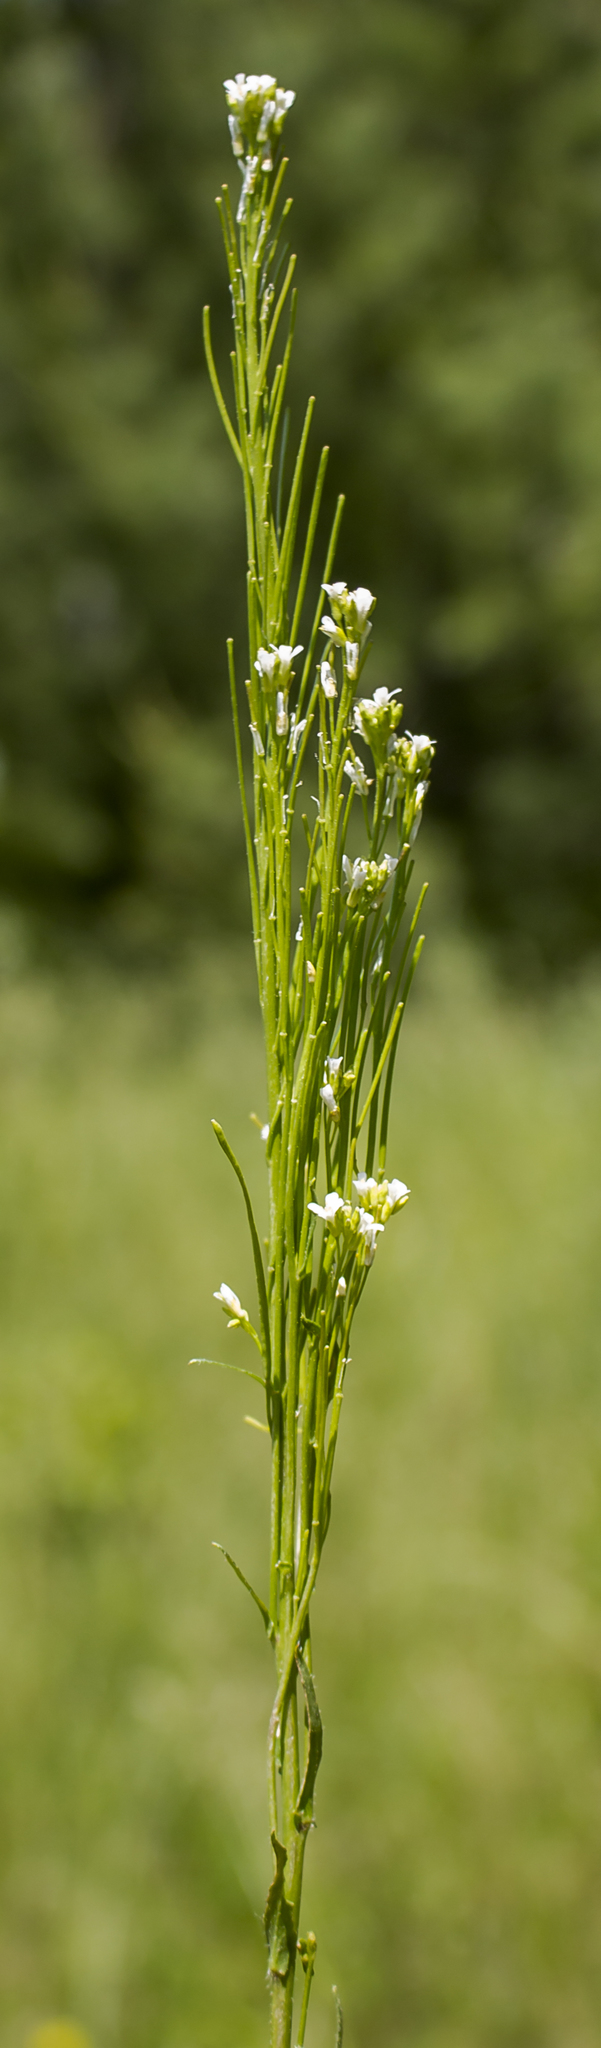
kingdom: Plantae
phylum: Tracheophyta
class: Magnoliopsida
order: Brassicales
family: Brassicaceae
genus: Arabis
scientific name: Arabis hirsuta
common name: Hairy rock-cress
